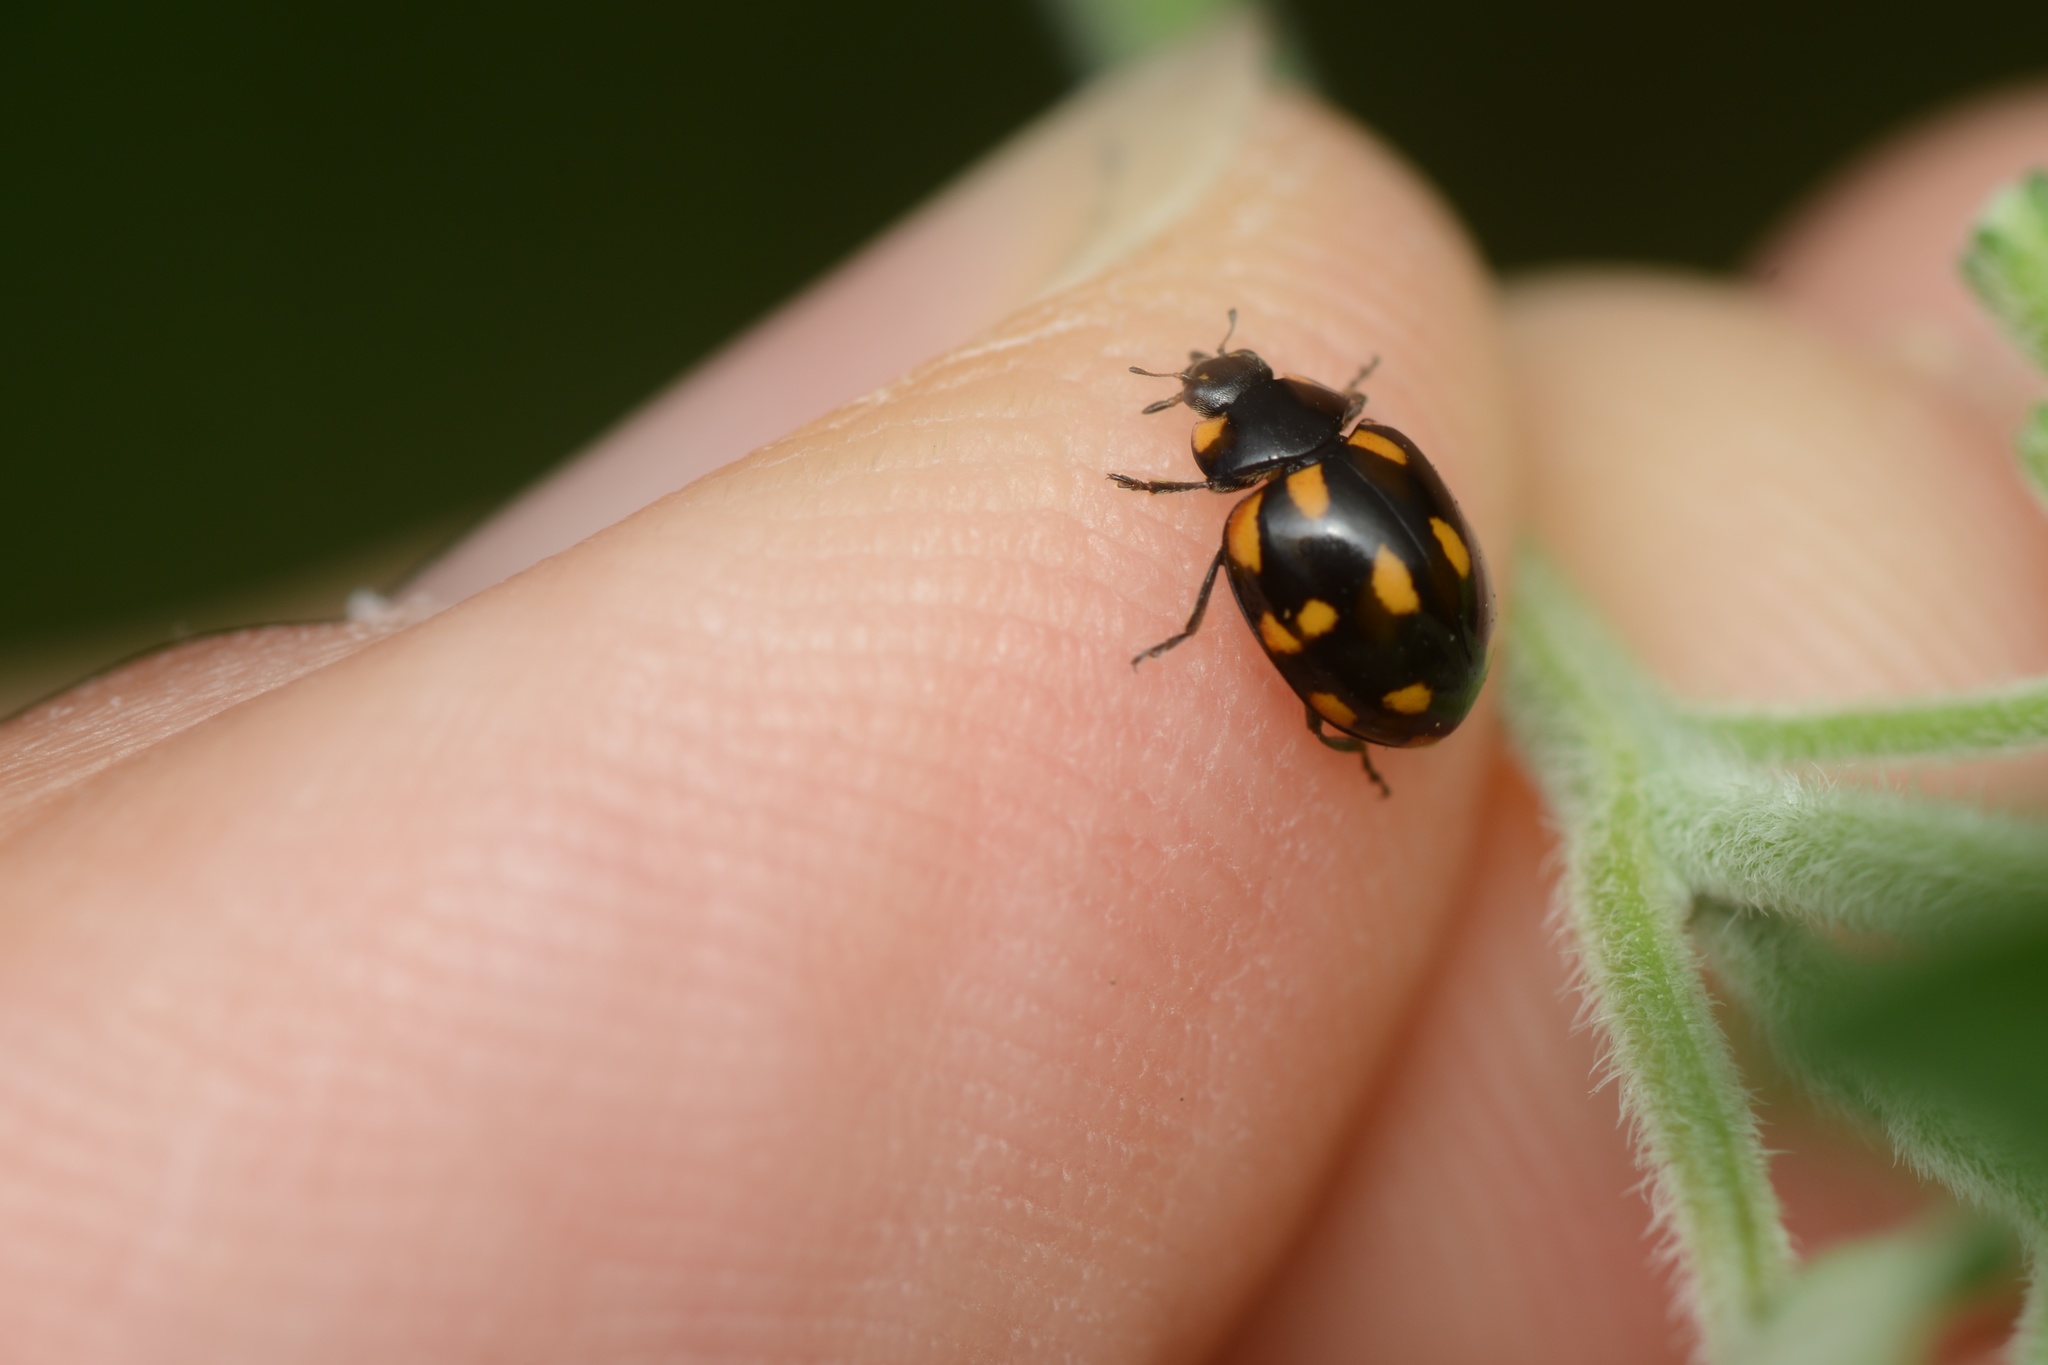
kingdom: Animalia
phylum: Arthropoda
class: Insecta
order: Coleoptera
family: Coccinellidae
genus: Coccinella
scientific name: Coccinella leonina
